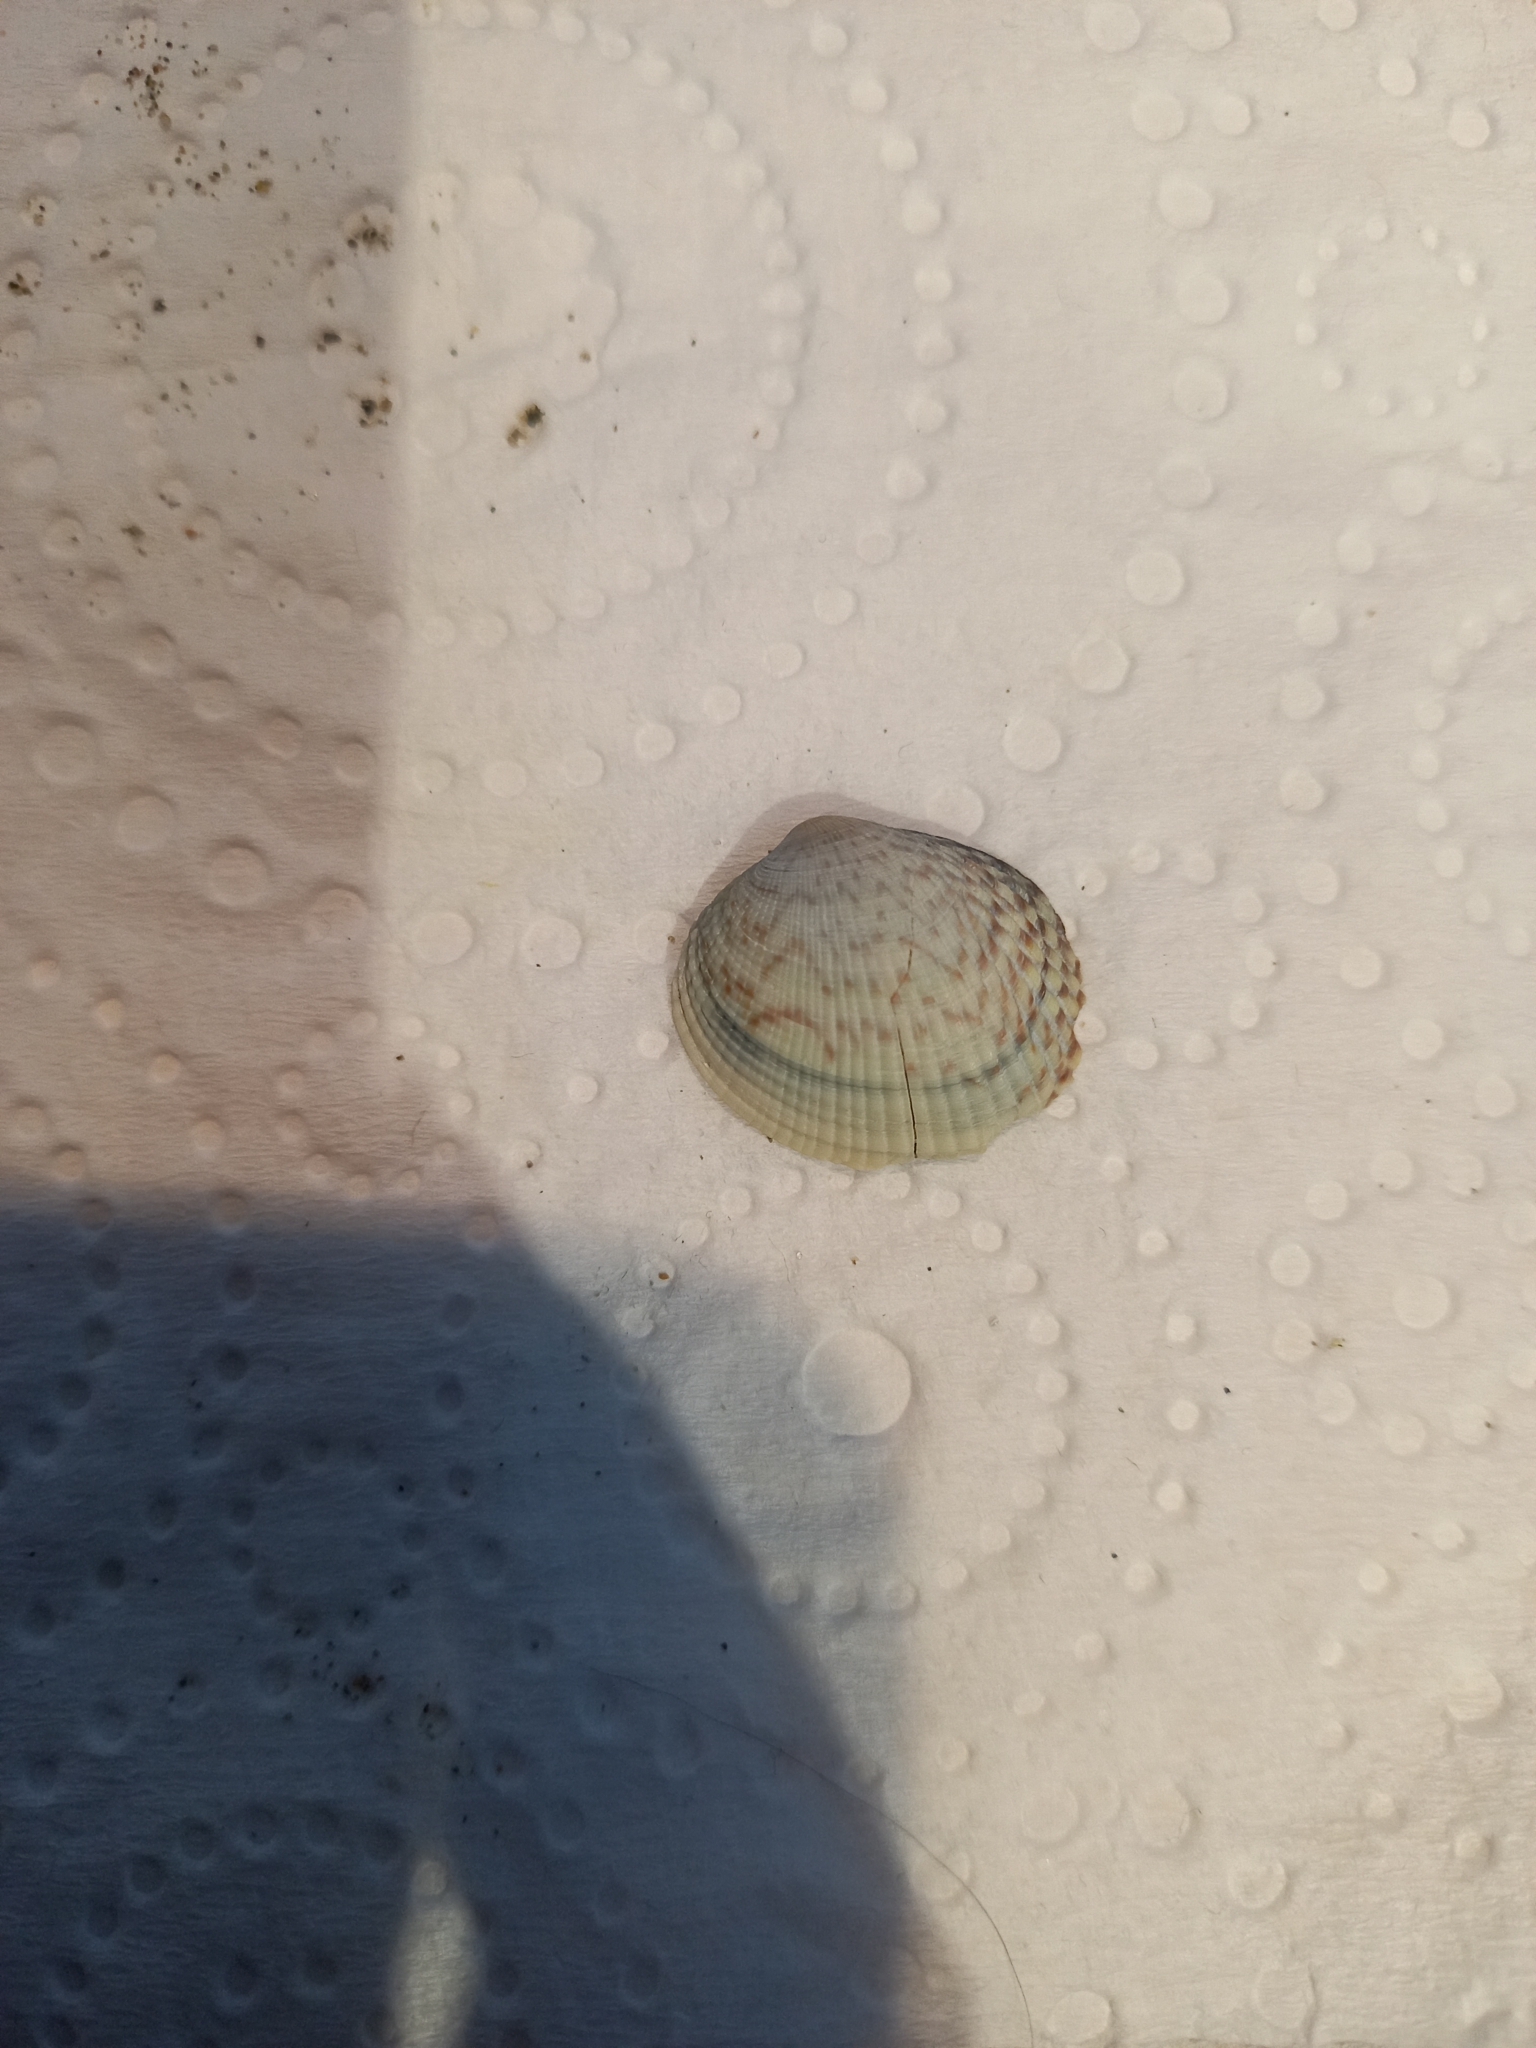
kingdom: Animalia
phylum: Mollusca
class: Bivalvia
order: Venerida
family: Veneridae
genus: Leukoma
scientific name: Leukoma crassicosta
